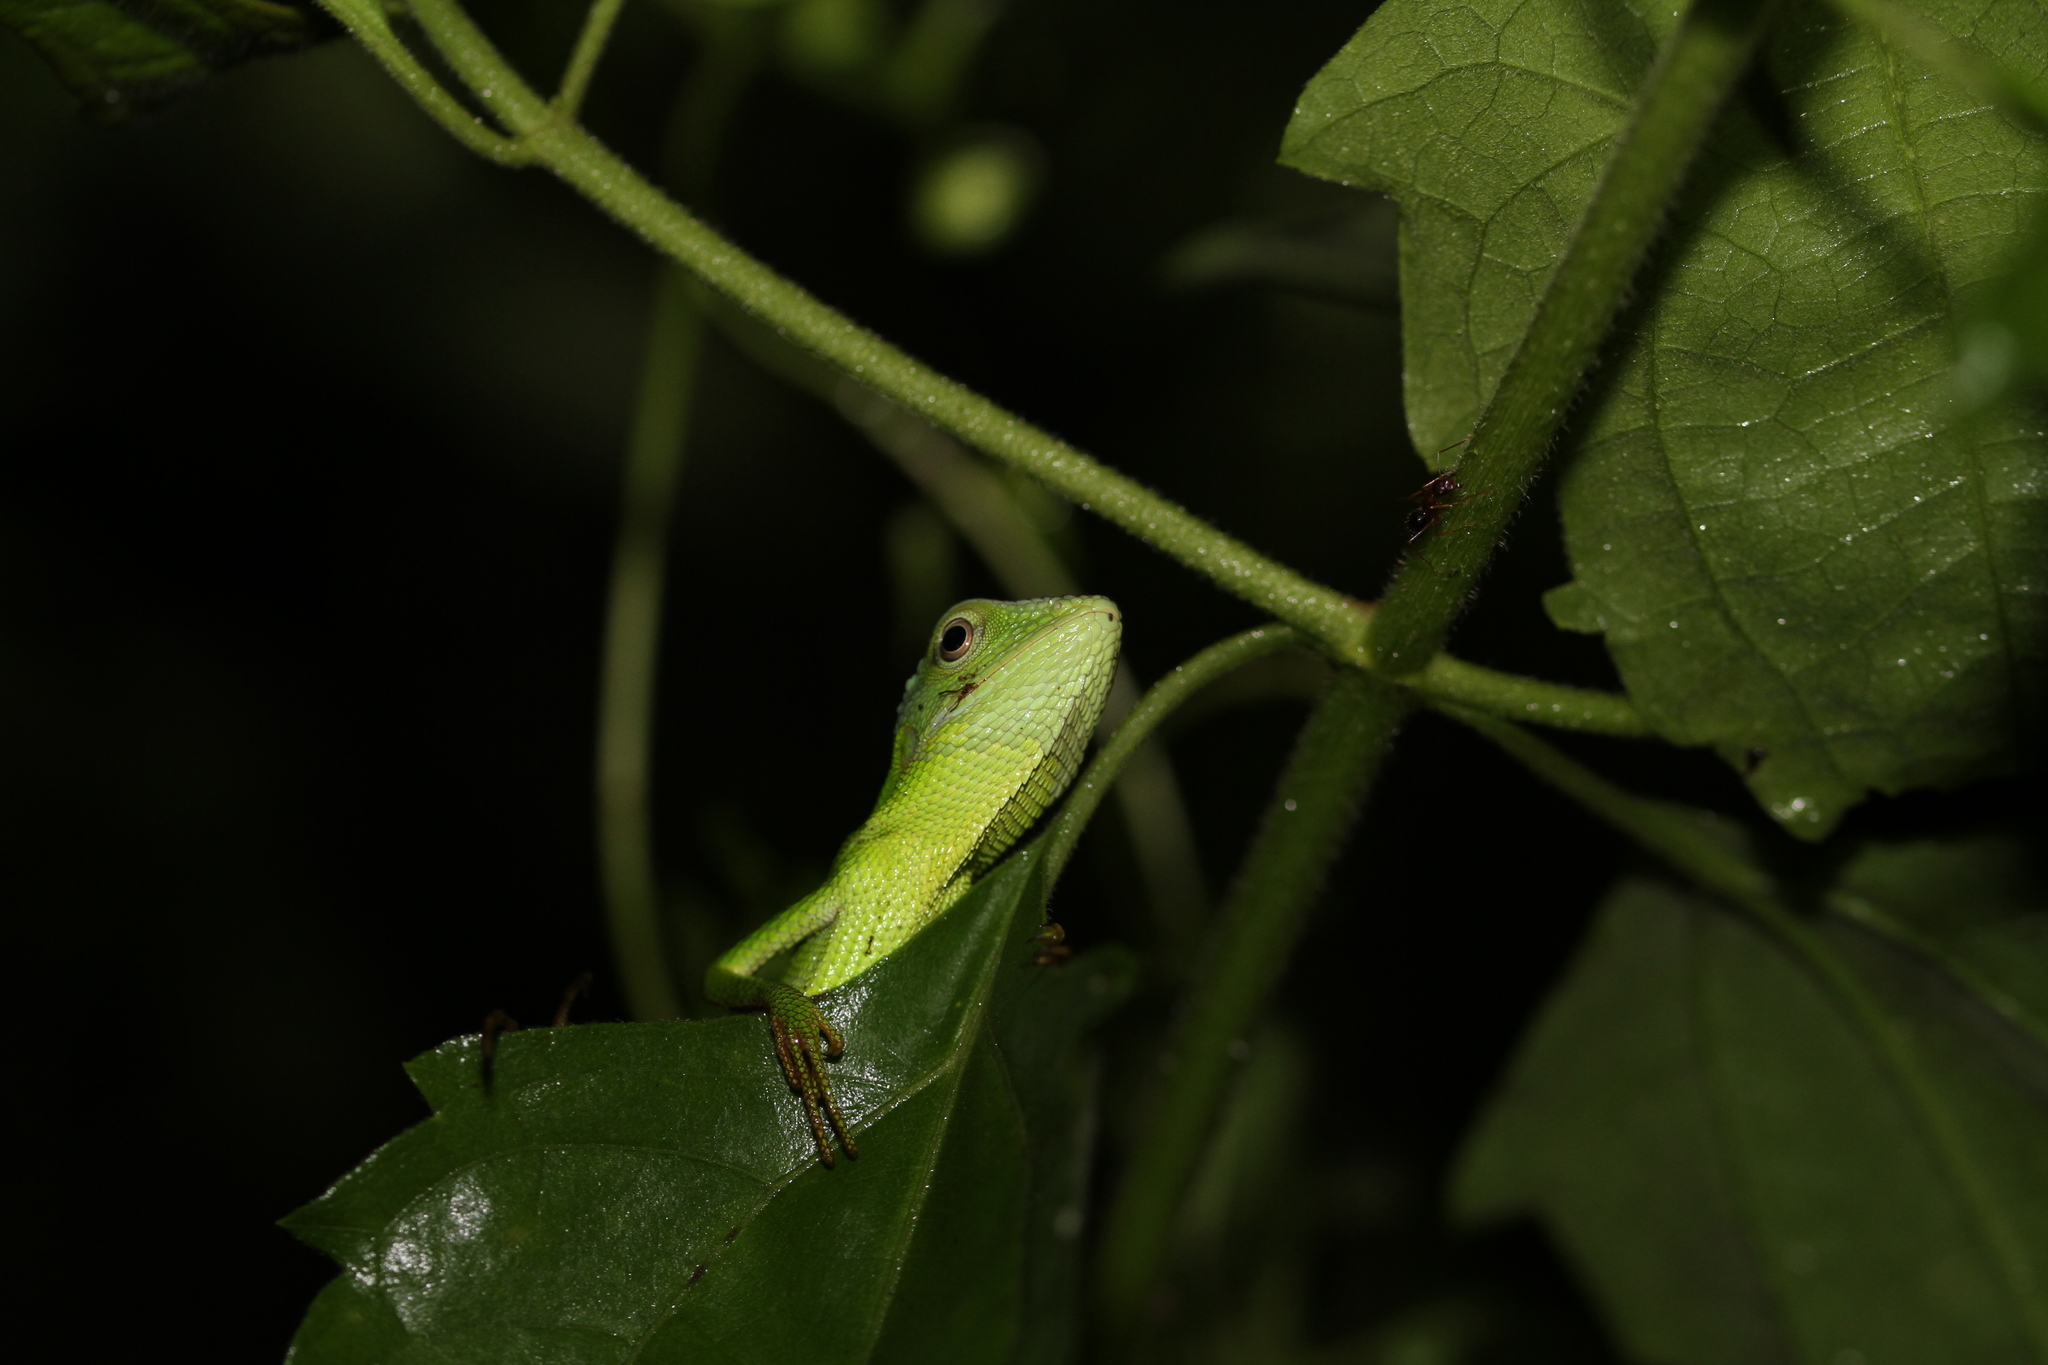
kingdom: Animalia
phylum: Chordata
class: Squamata
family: Agamidae
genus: Bronchocela
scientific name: Bronchocela jubata
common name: Maned forest lizard
